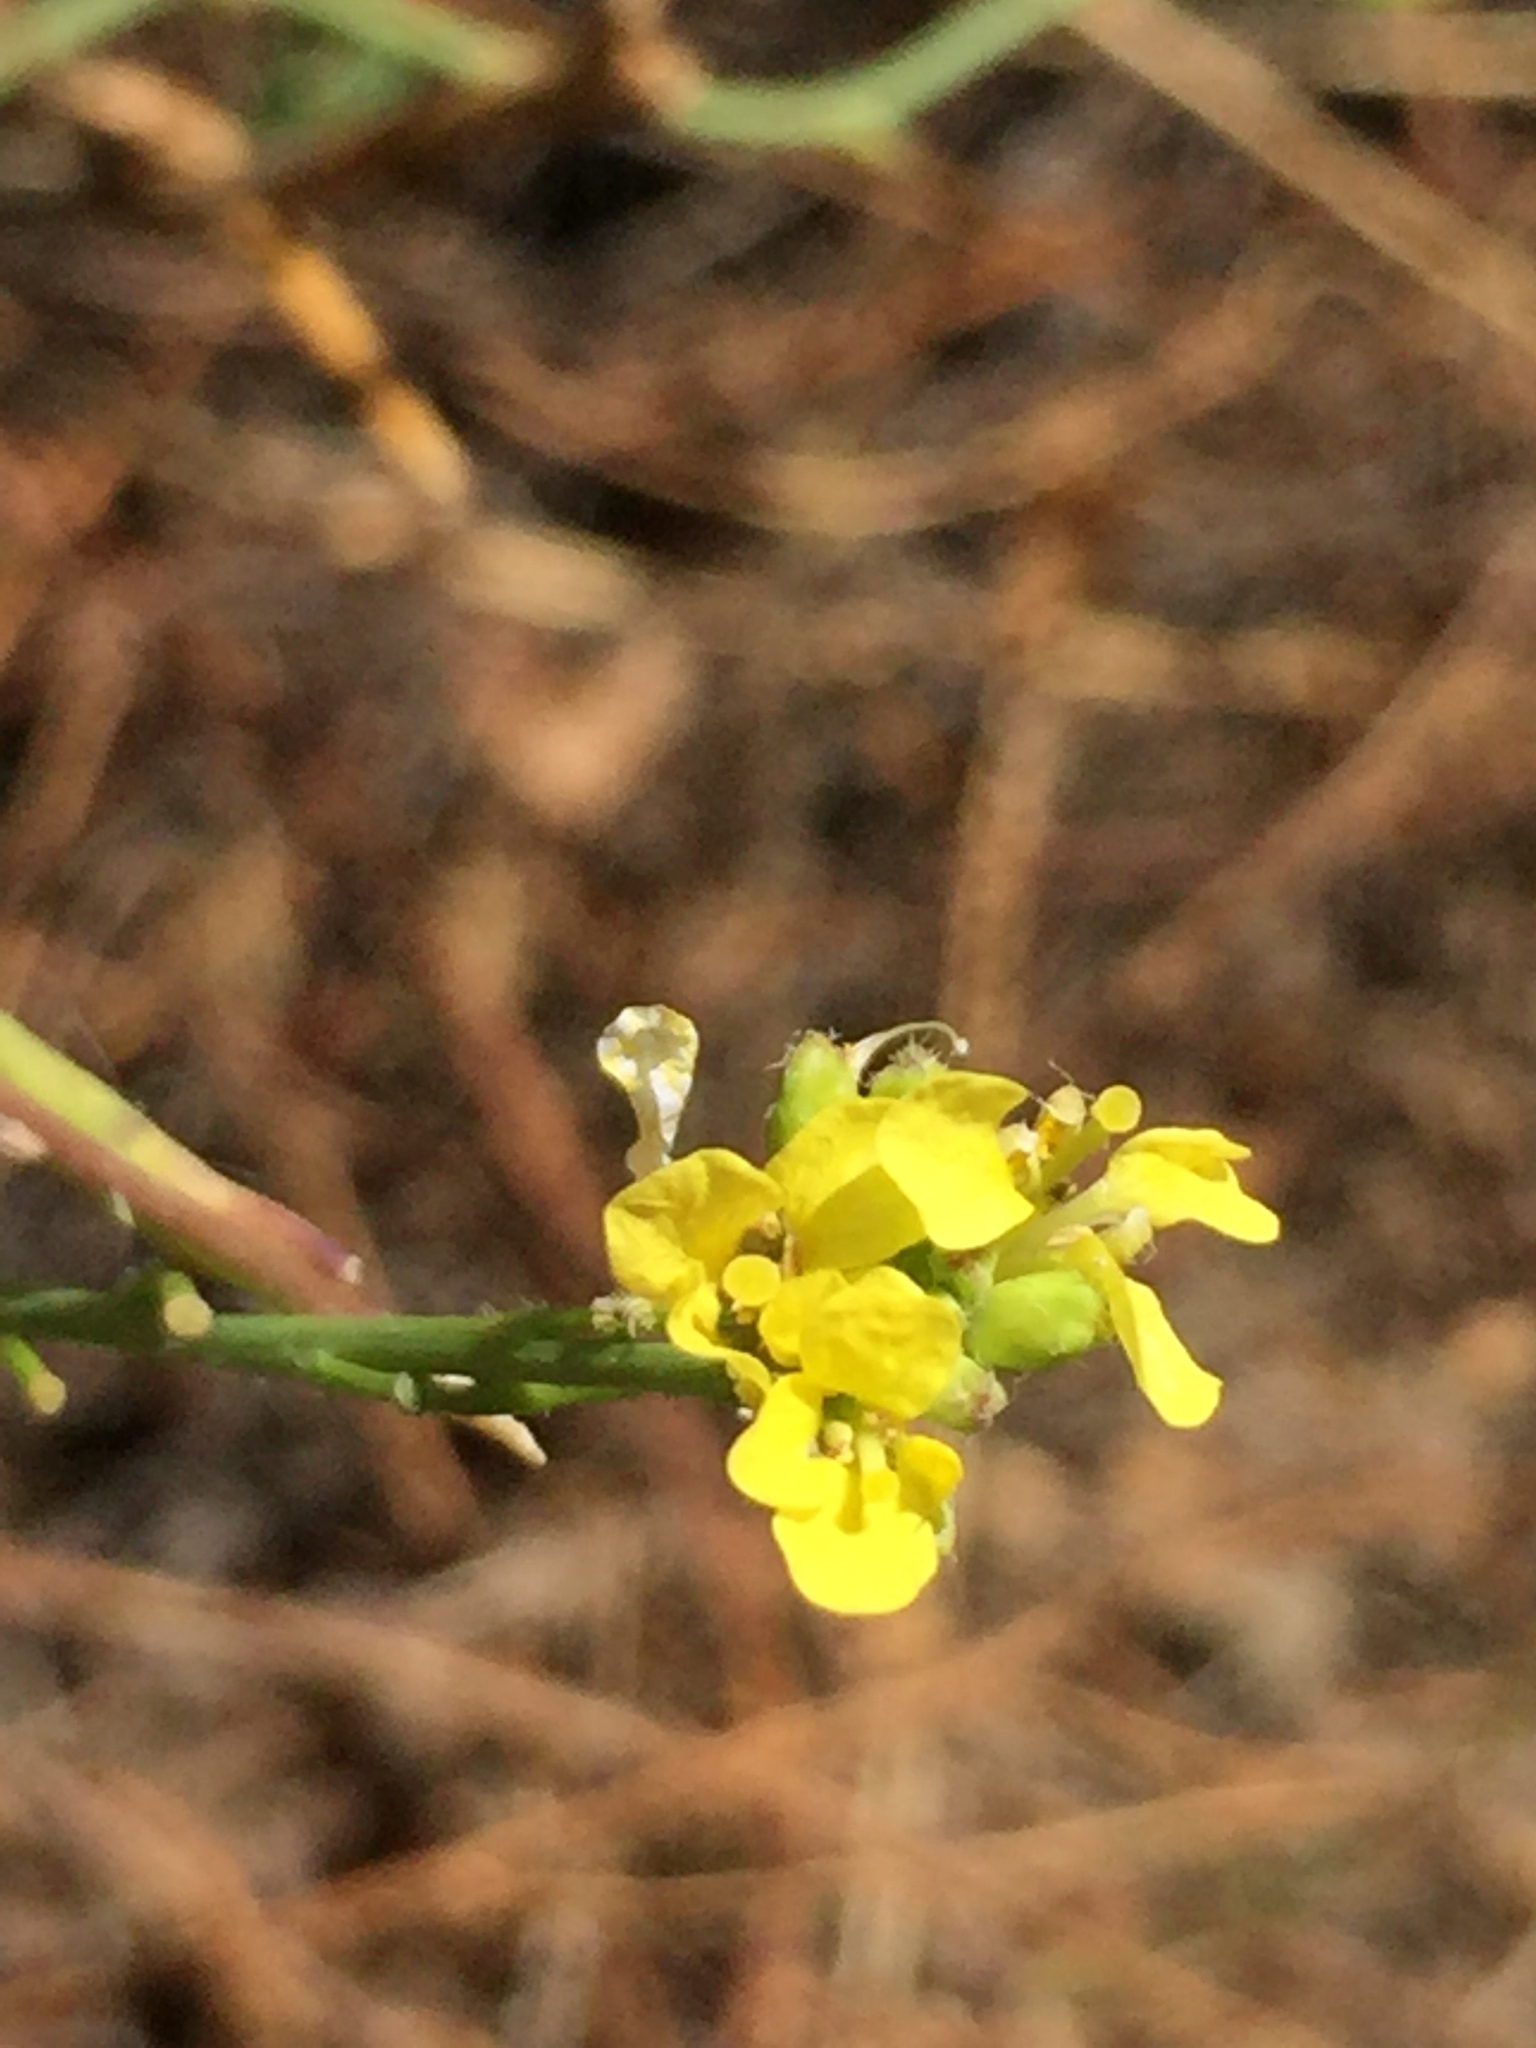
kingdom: Plantae
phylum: Tracheophyta
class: Magnoliopsida
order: Brassicales
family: Brassicaceae
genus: Hirschfeldia
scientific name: Hirschfeldia incana
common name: Hoary mustard
